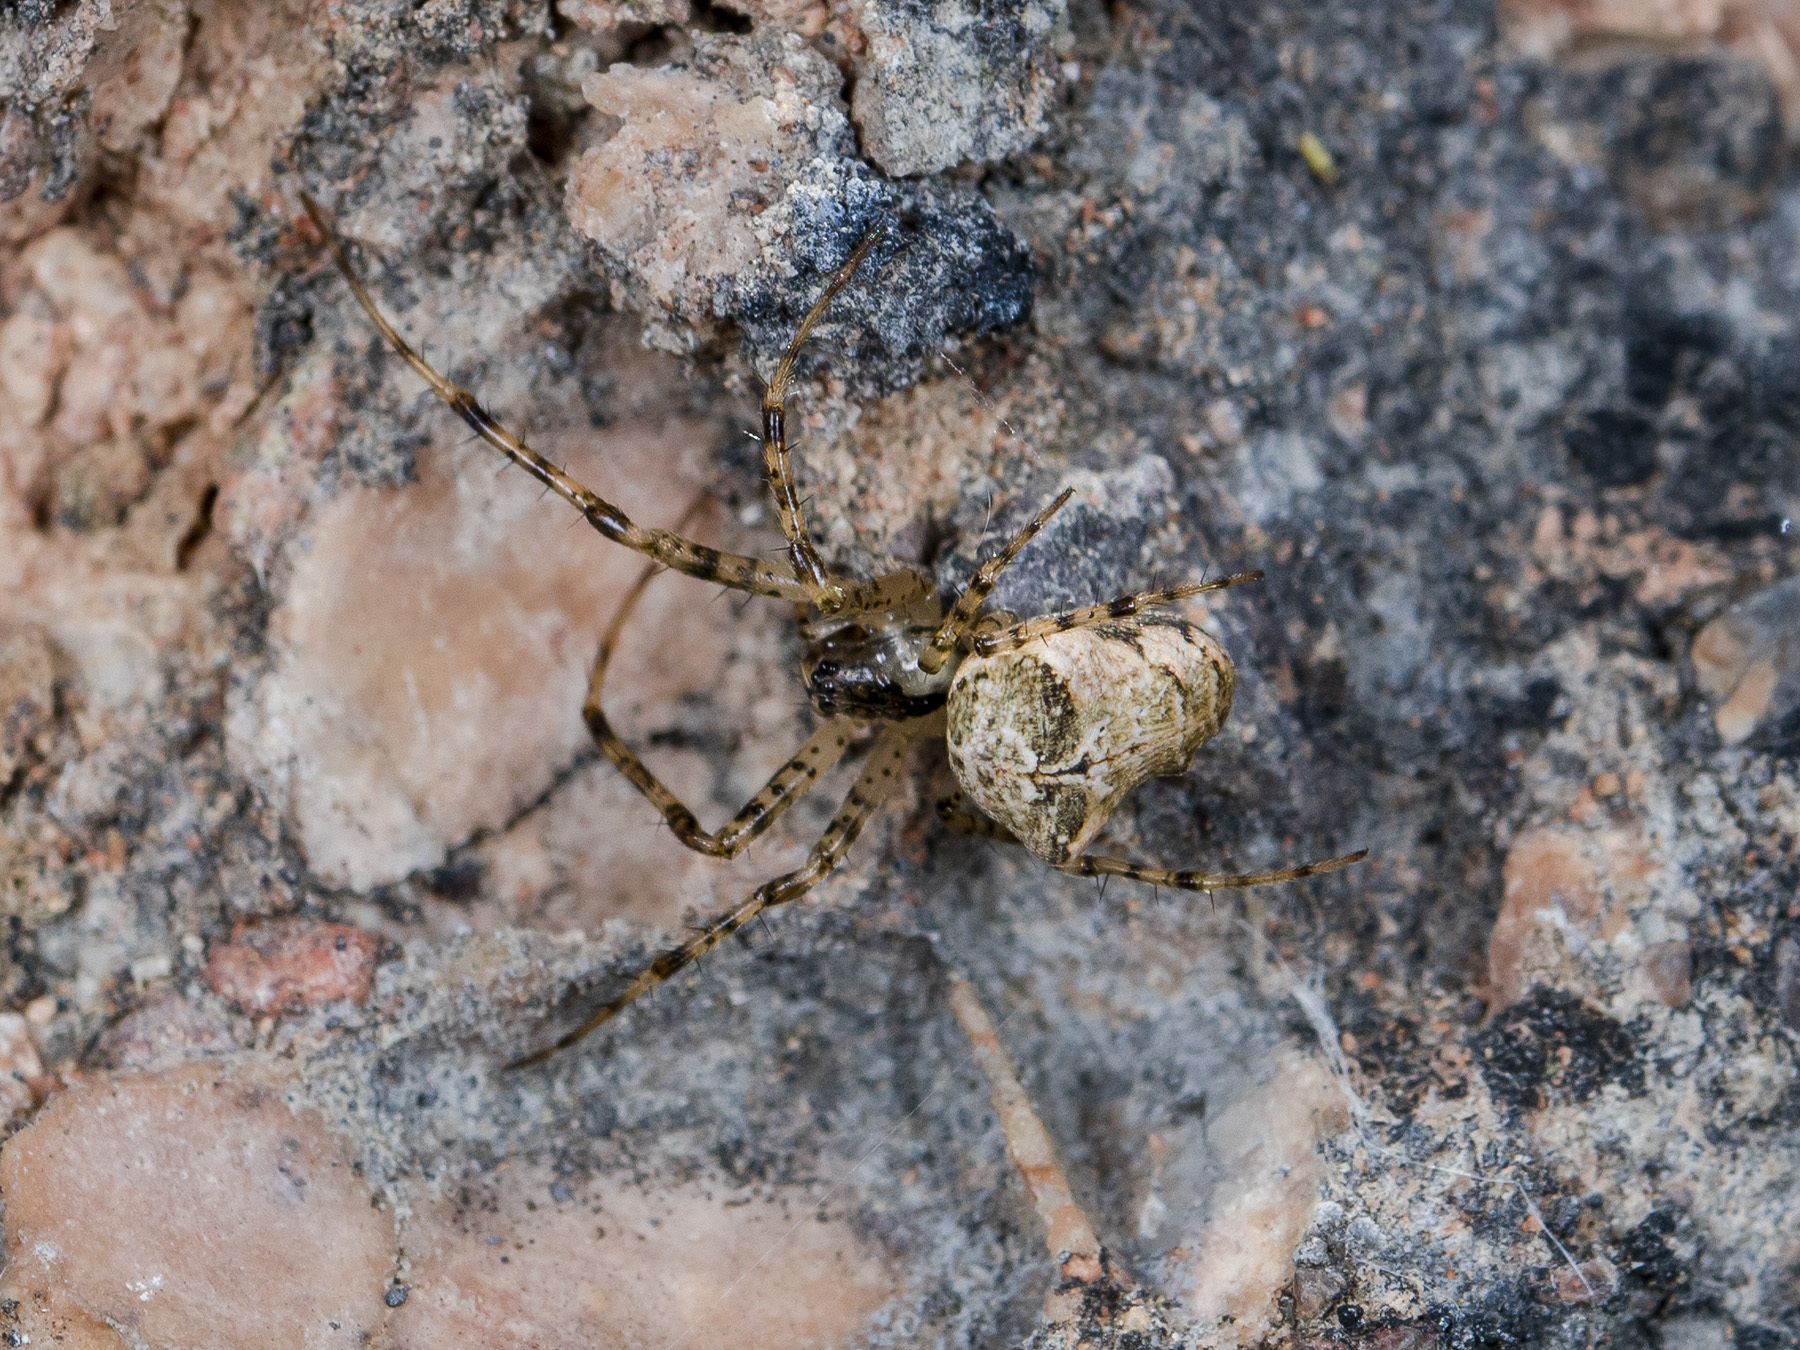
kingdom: Animalia
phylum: Arthropoda
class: Arachnida
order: Araneae
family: Tetragnathidae
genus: Metellina
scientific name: Metellina kirgisica
